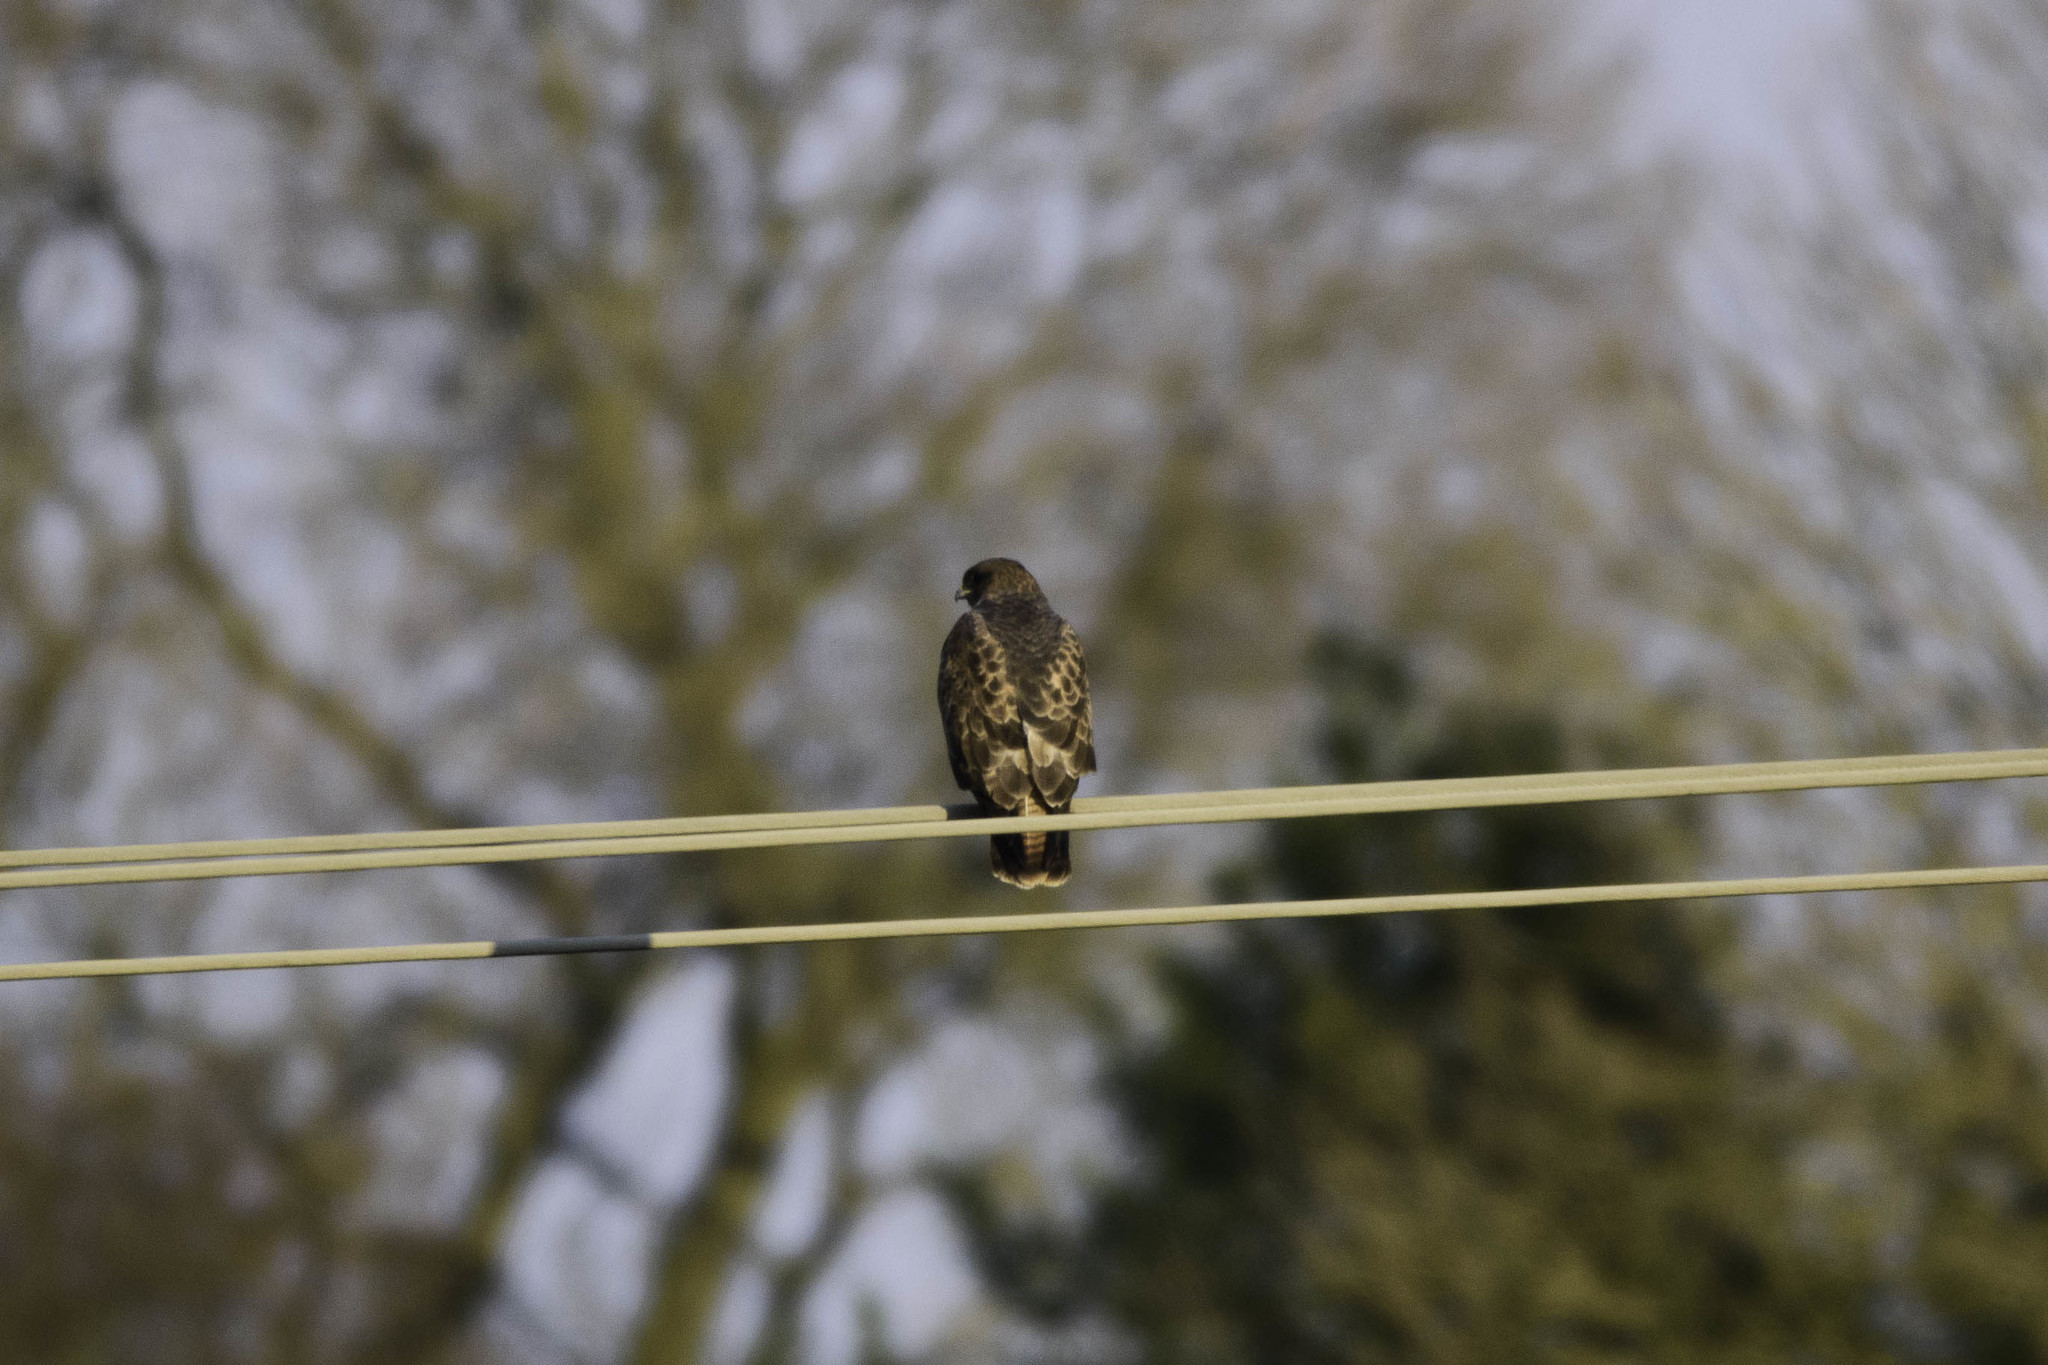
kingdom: Animalia
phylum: Chordata
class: Aves
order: Accipitriformes
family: Accipitridae
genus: Buteo
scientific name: Buteo buteo
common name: Common buzzard
